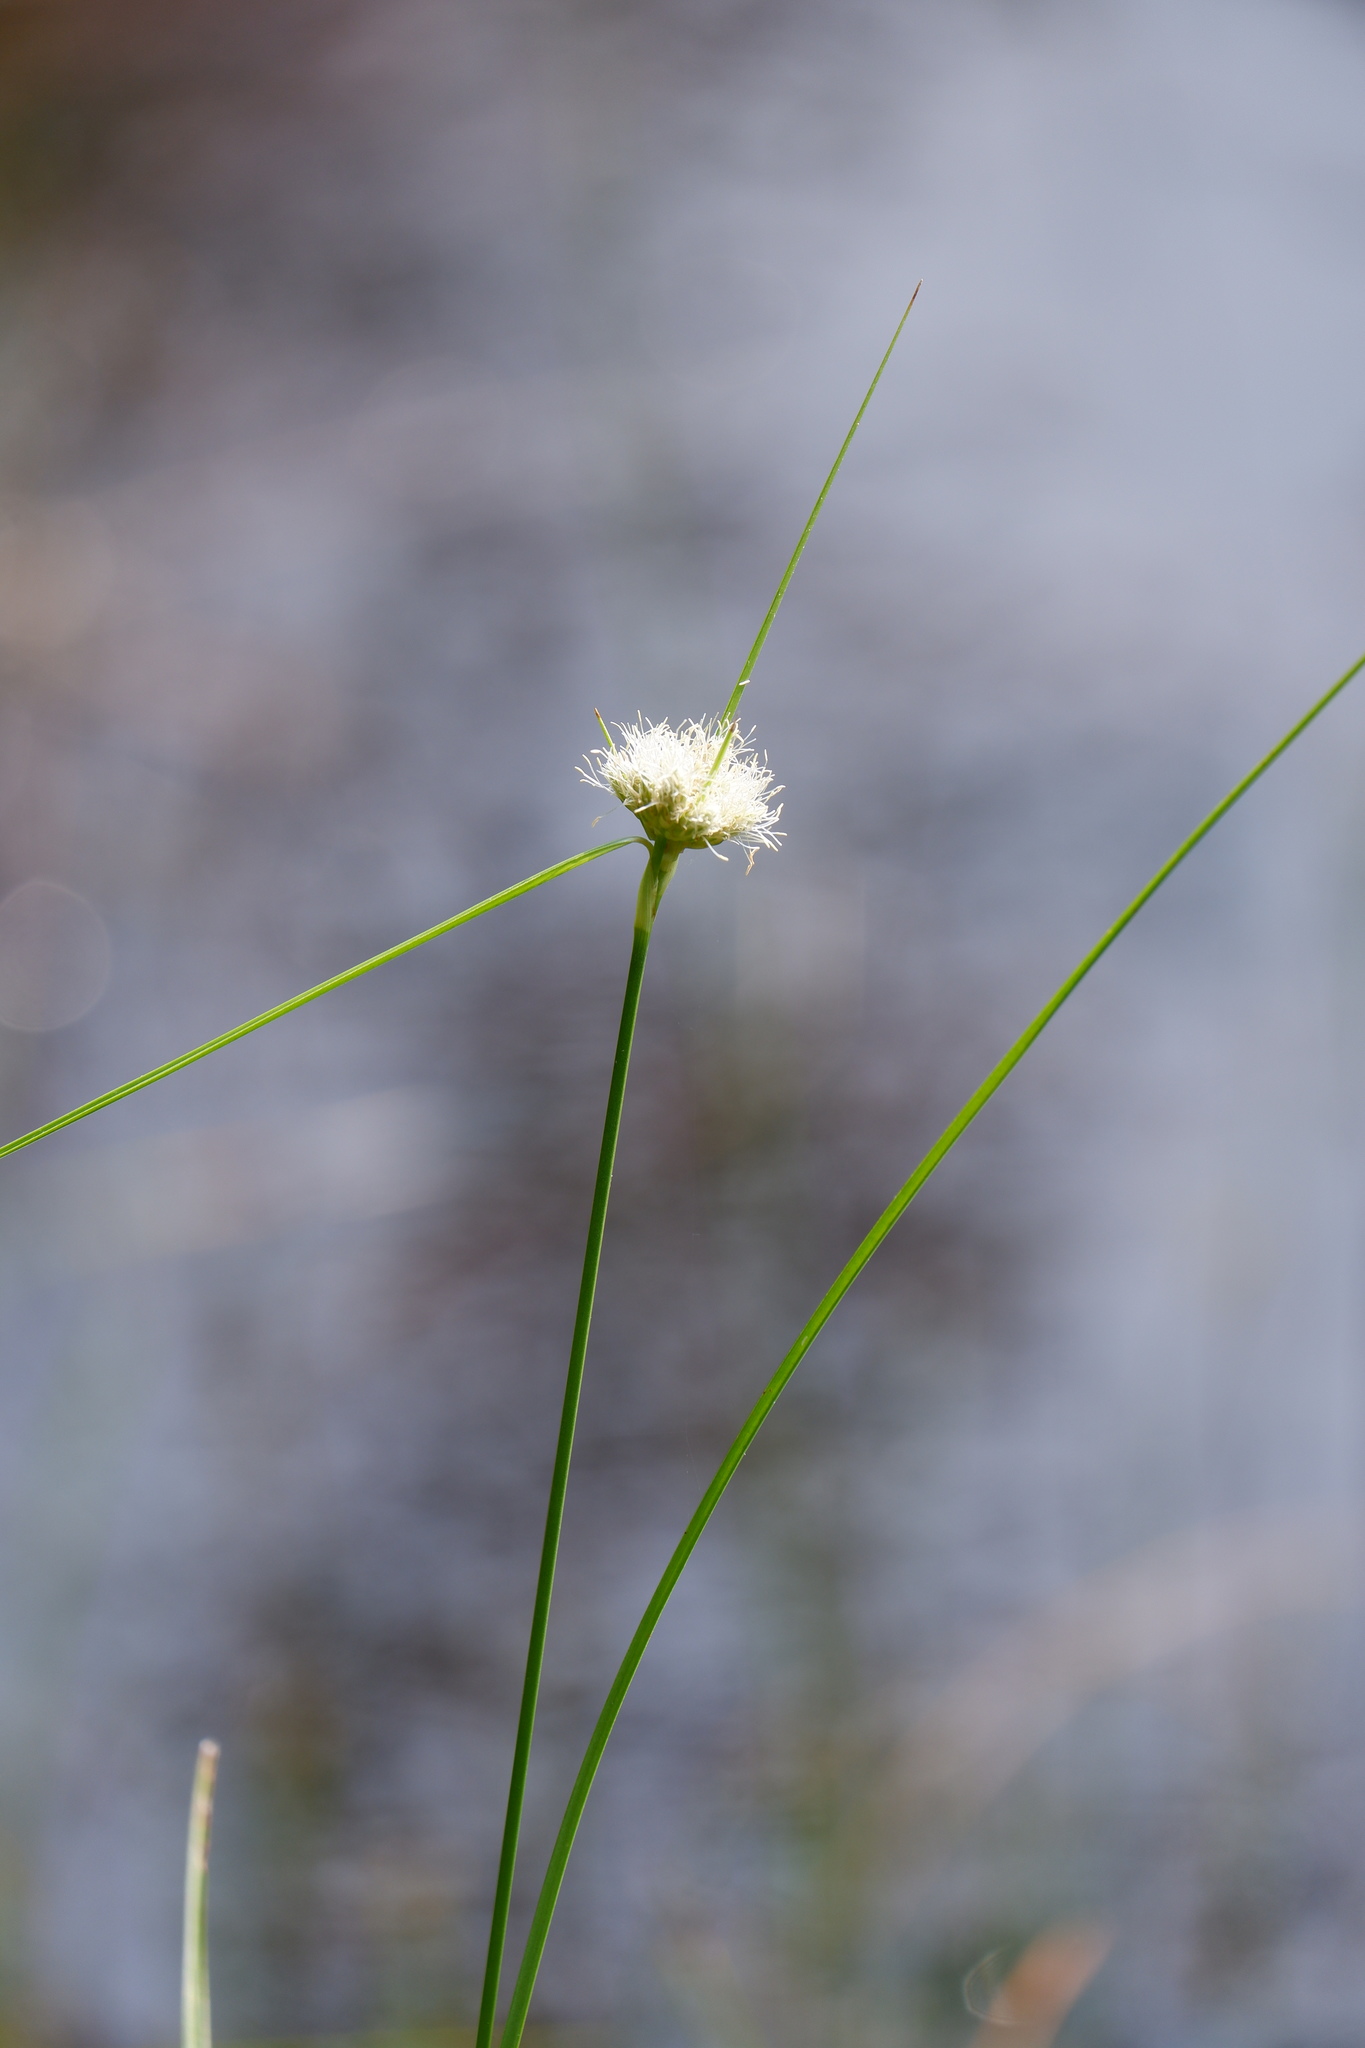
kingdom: Plantae
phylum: Tracheophyta
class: Liliopsida
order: Poales
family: Cyperaceae
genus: Eriophorum
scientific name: Eriophorum virginicum
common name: Tawny cottongrass
